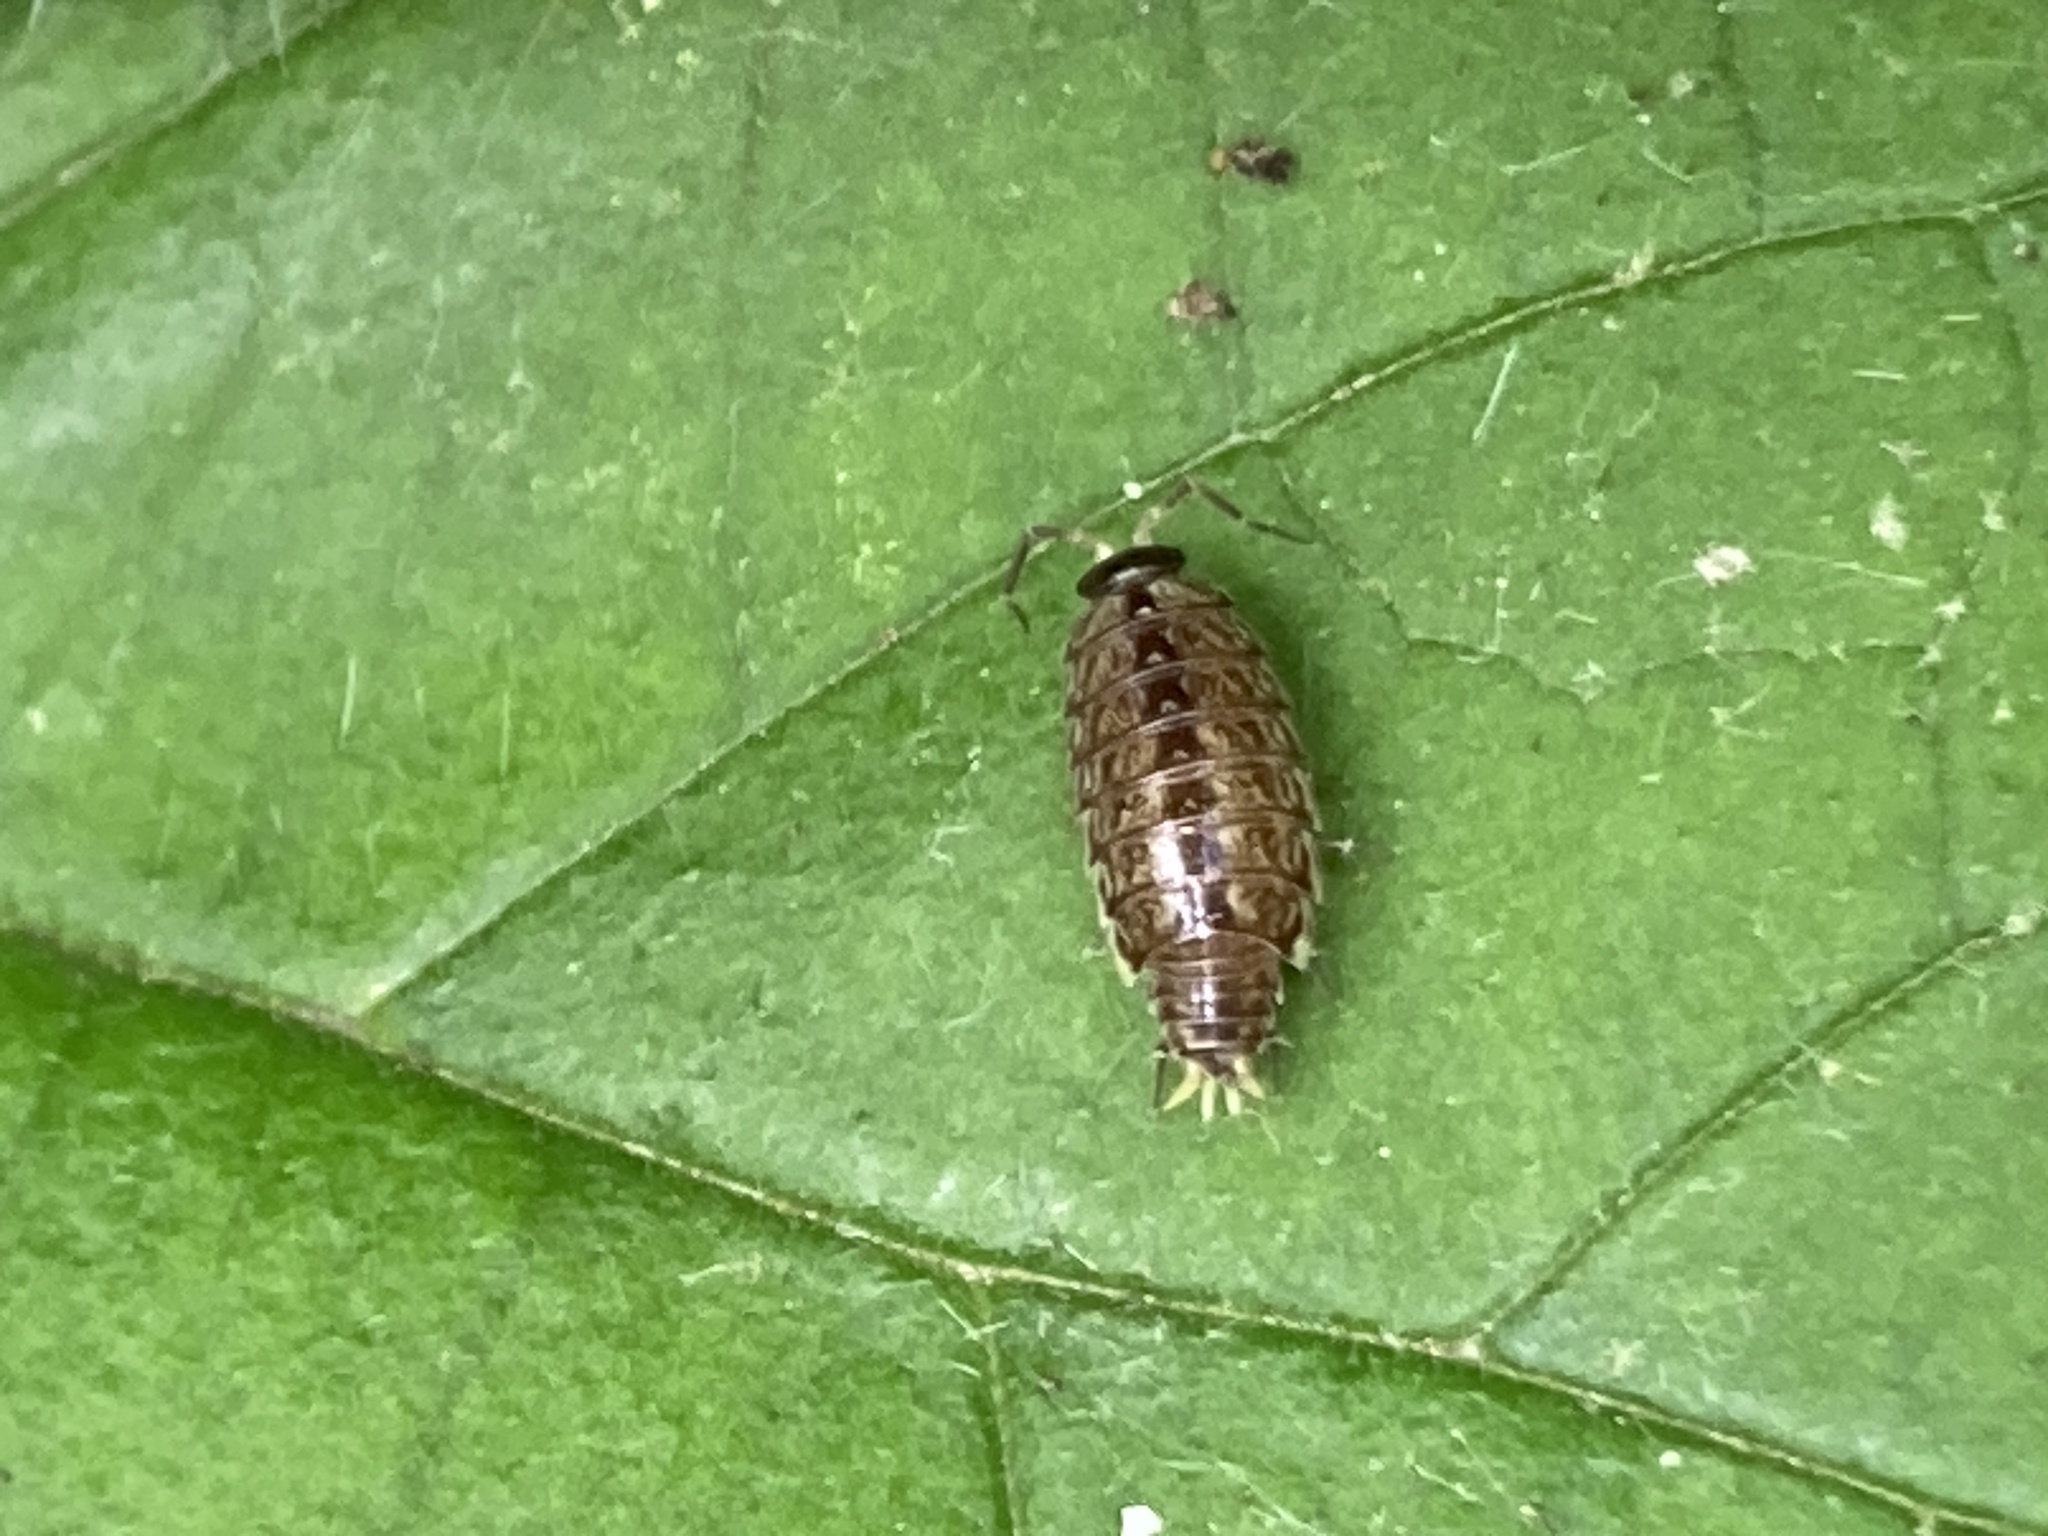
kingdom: Animalia
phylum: Arthropoda
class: Malacostraca
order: Isopoda
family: Philosciidae
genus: Philoscia
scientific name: Philoscia muscorum
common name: Common striped woodlouse
